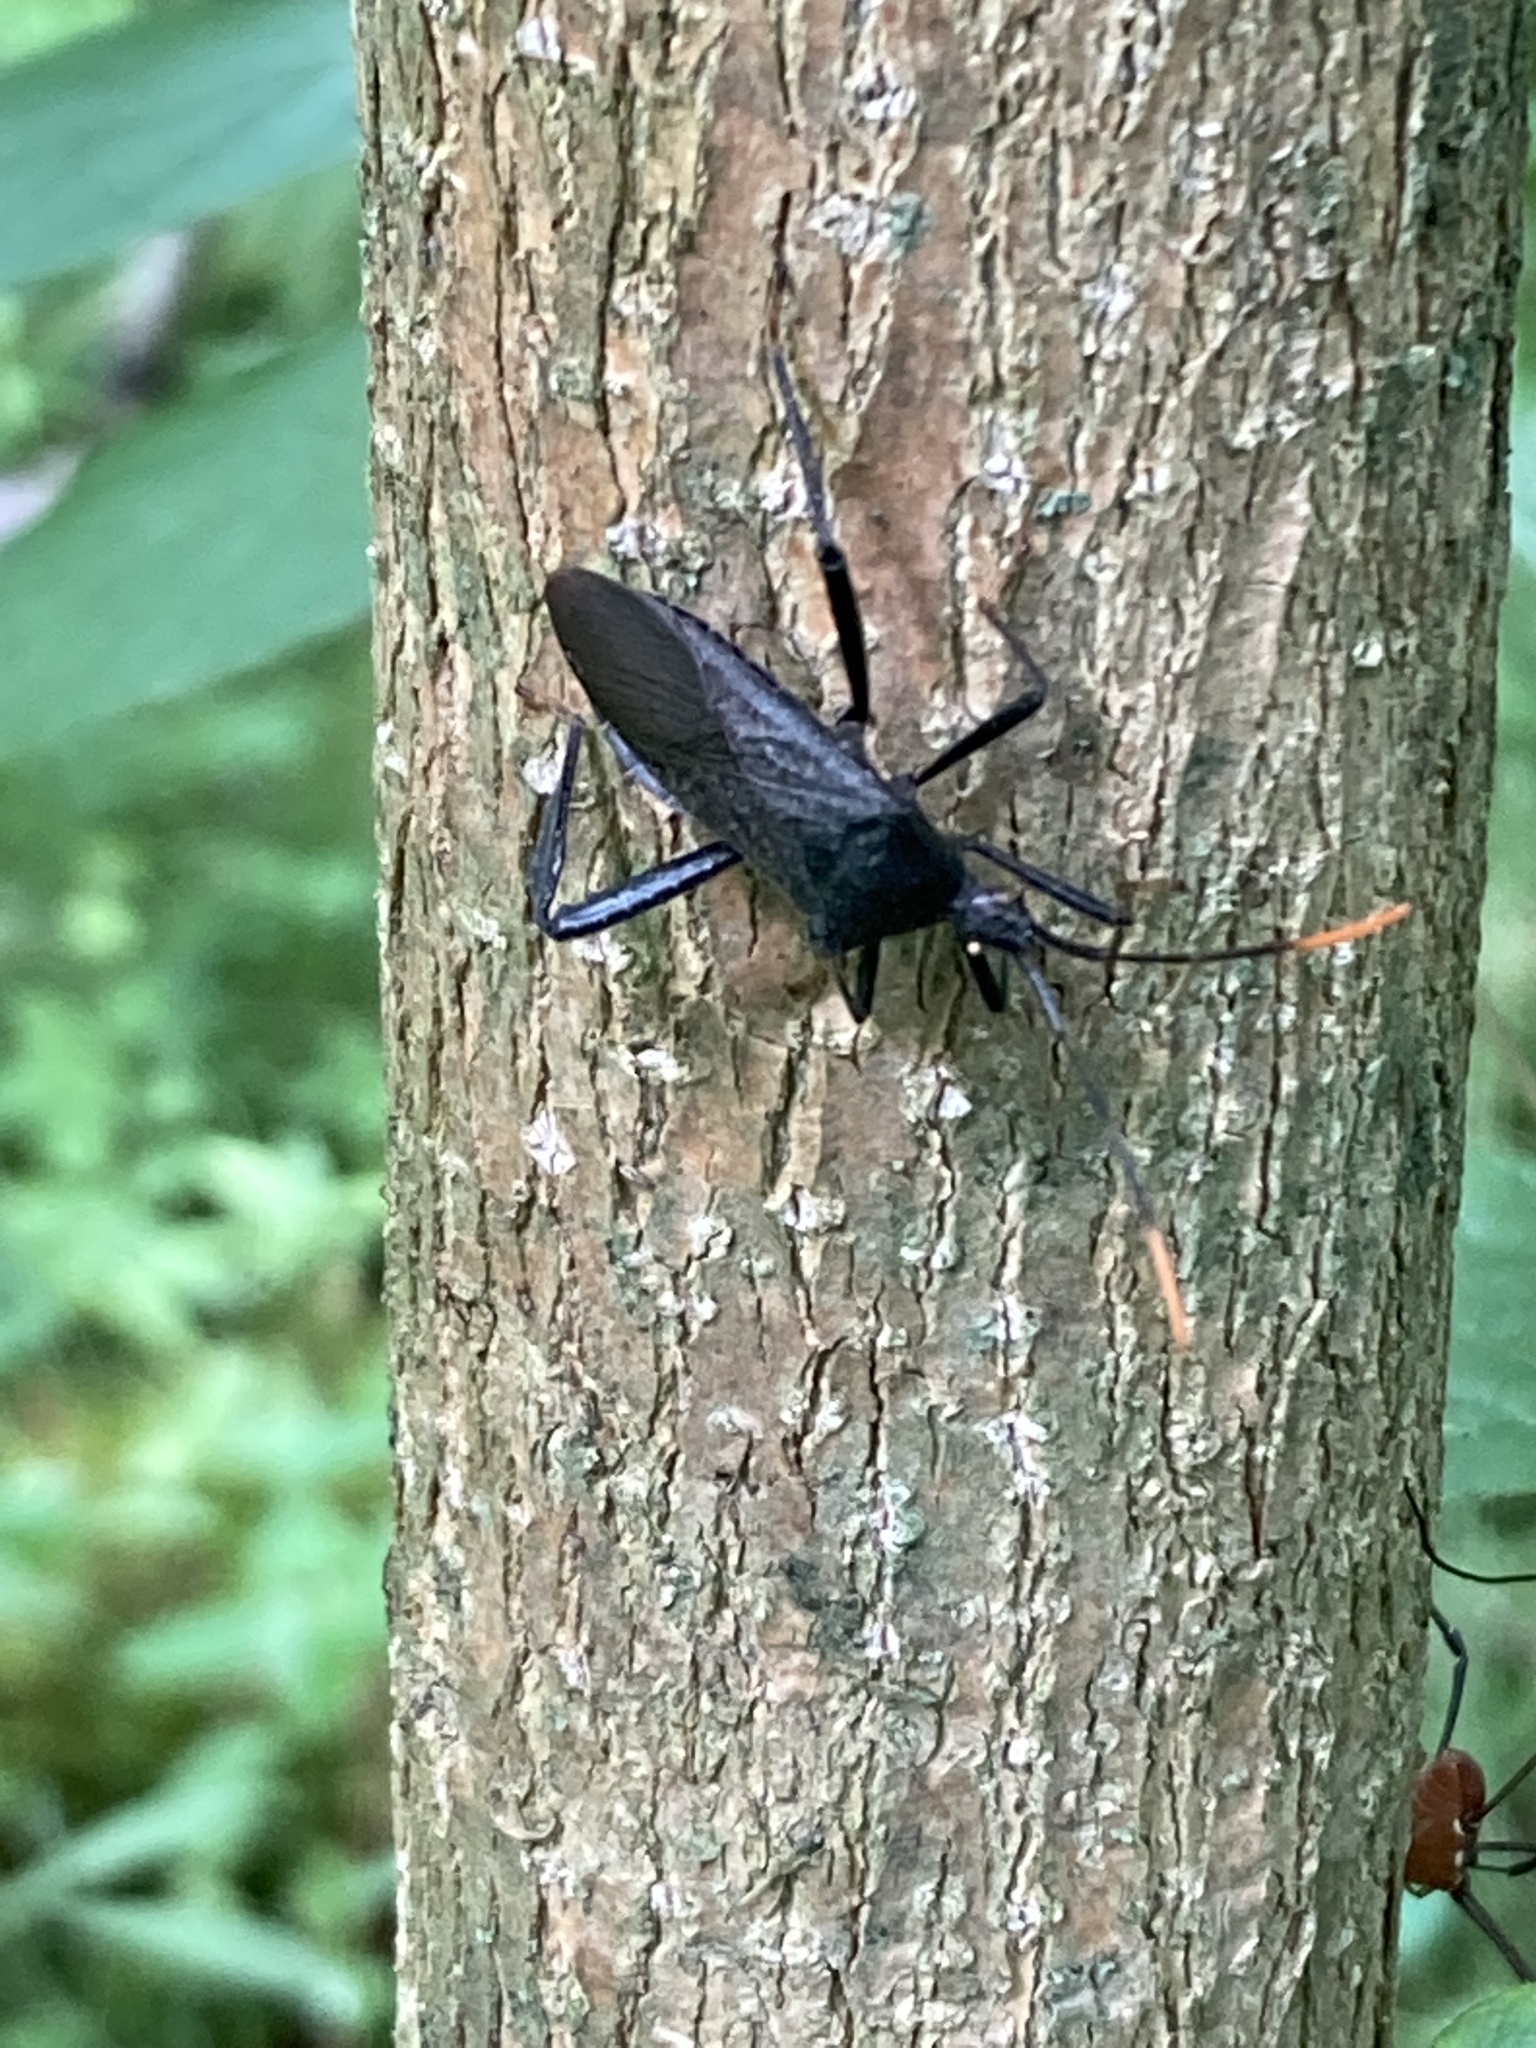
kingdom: Animalia
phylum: Arthropoda
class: Insecta
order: Hemiptera
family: Coreidae
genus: Acanthocephala
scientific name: Acanthocephala terminalis
